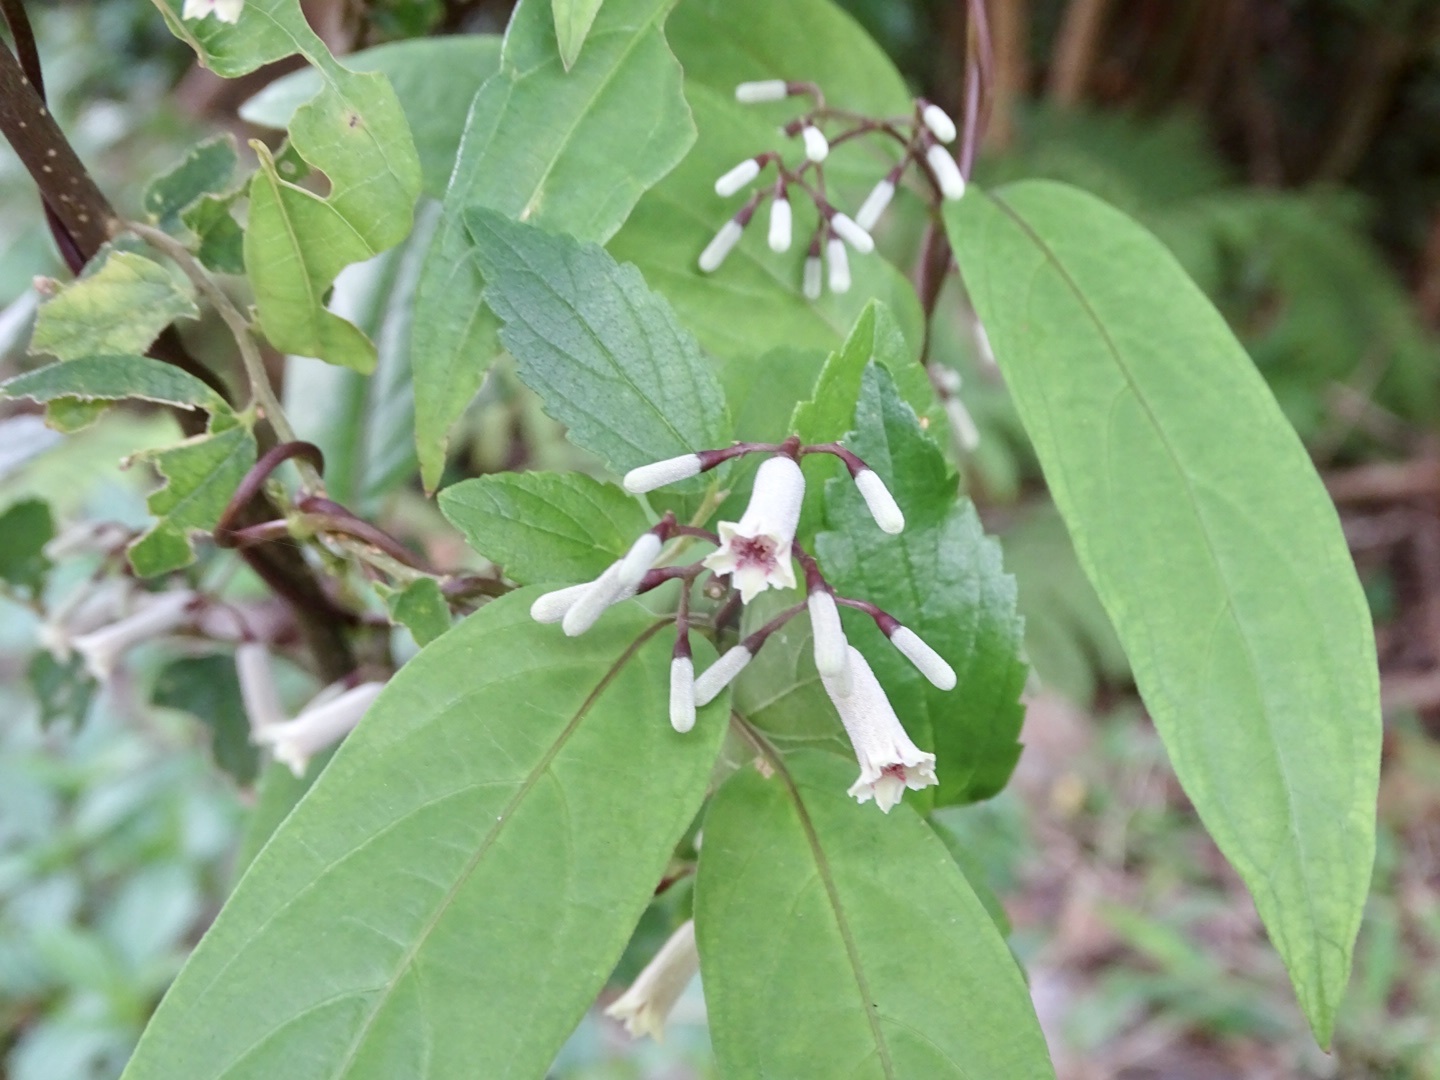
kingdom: Plantae
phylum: Tracheophyta
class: Magnoliopsida
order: Gentianales
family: Rubiaceae
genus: Paederia
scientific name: Paederia foetida
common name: Stinkvine
